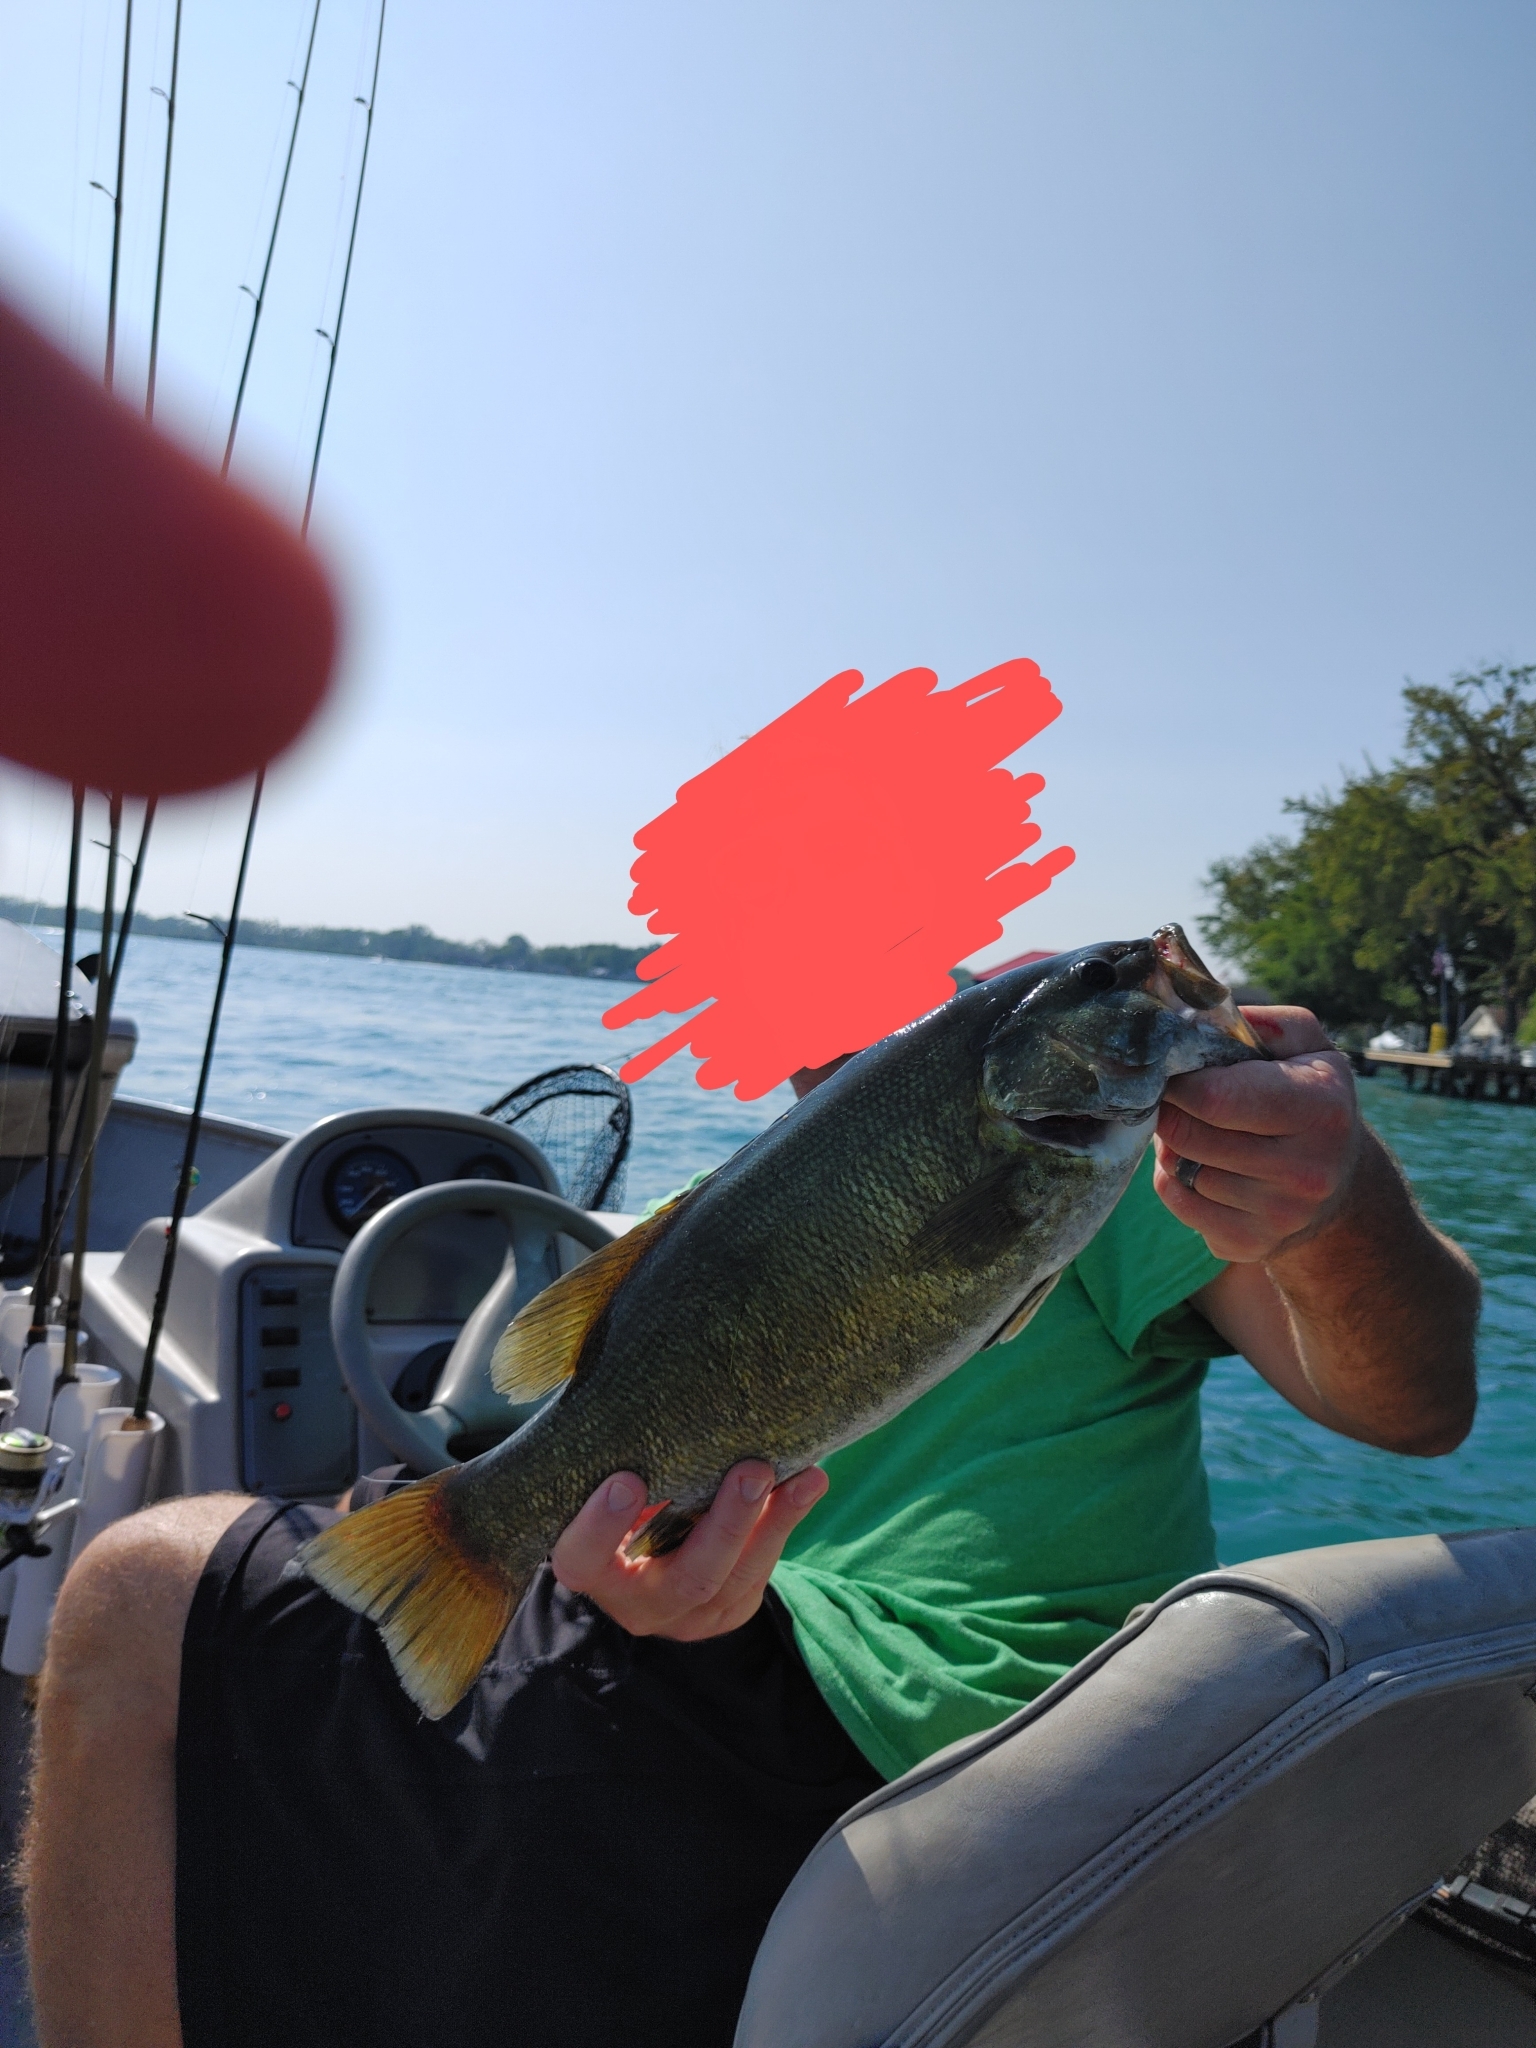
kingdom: Animalia
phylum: Chordata
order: Perciformes
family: Centrarchidae
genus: Micropterus
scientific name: Micropterus dolomieu
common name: Smallmouth bass
